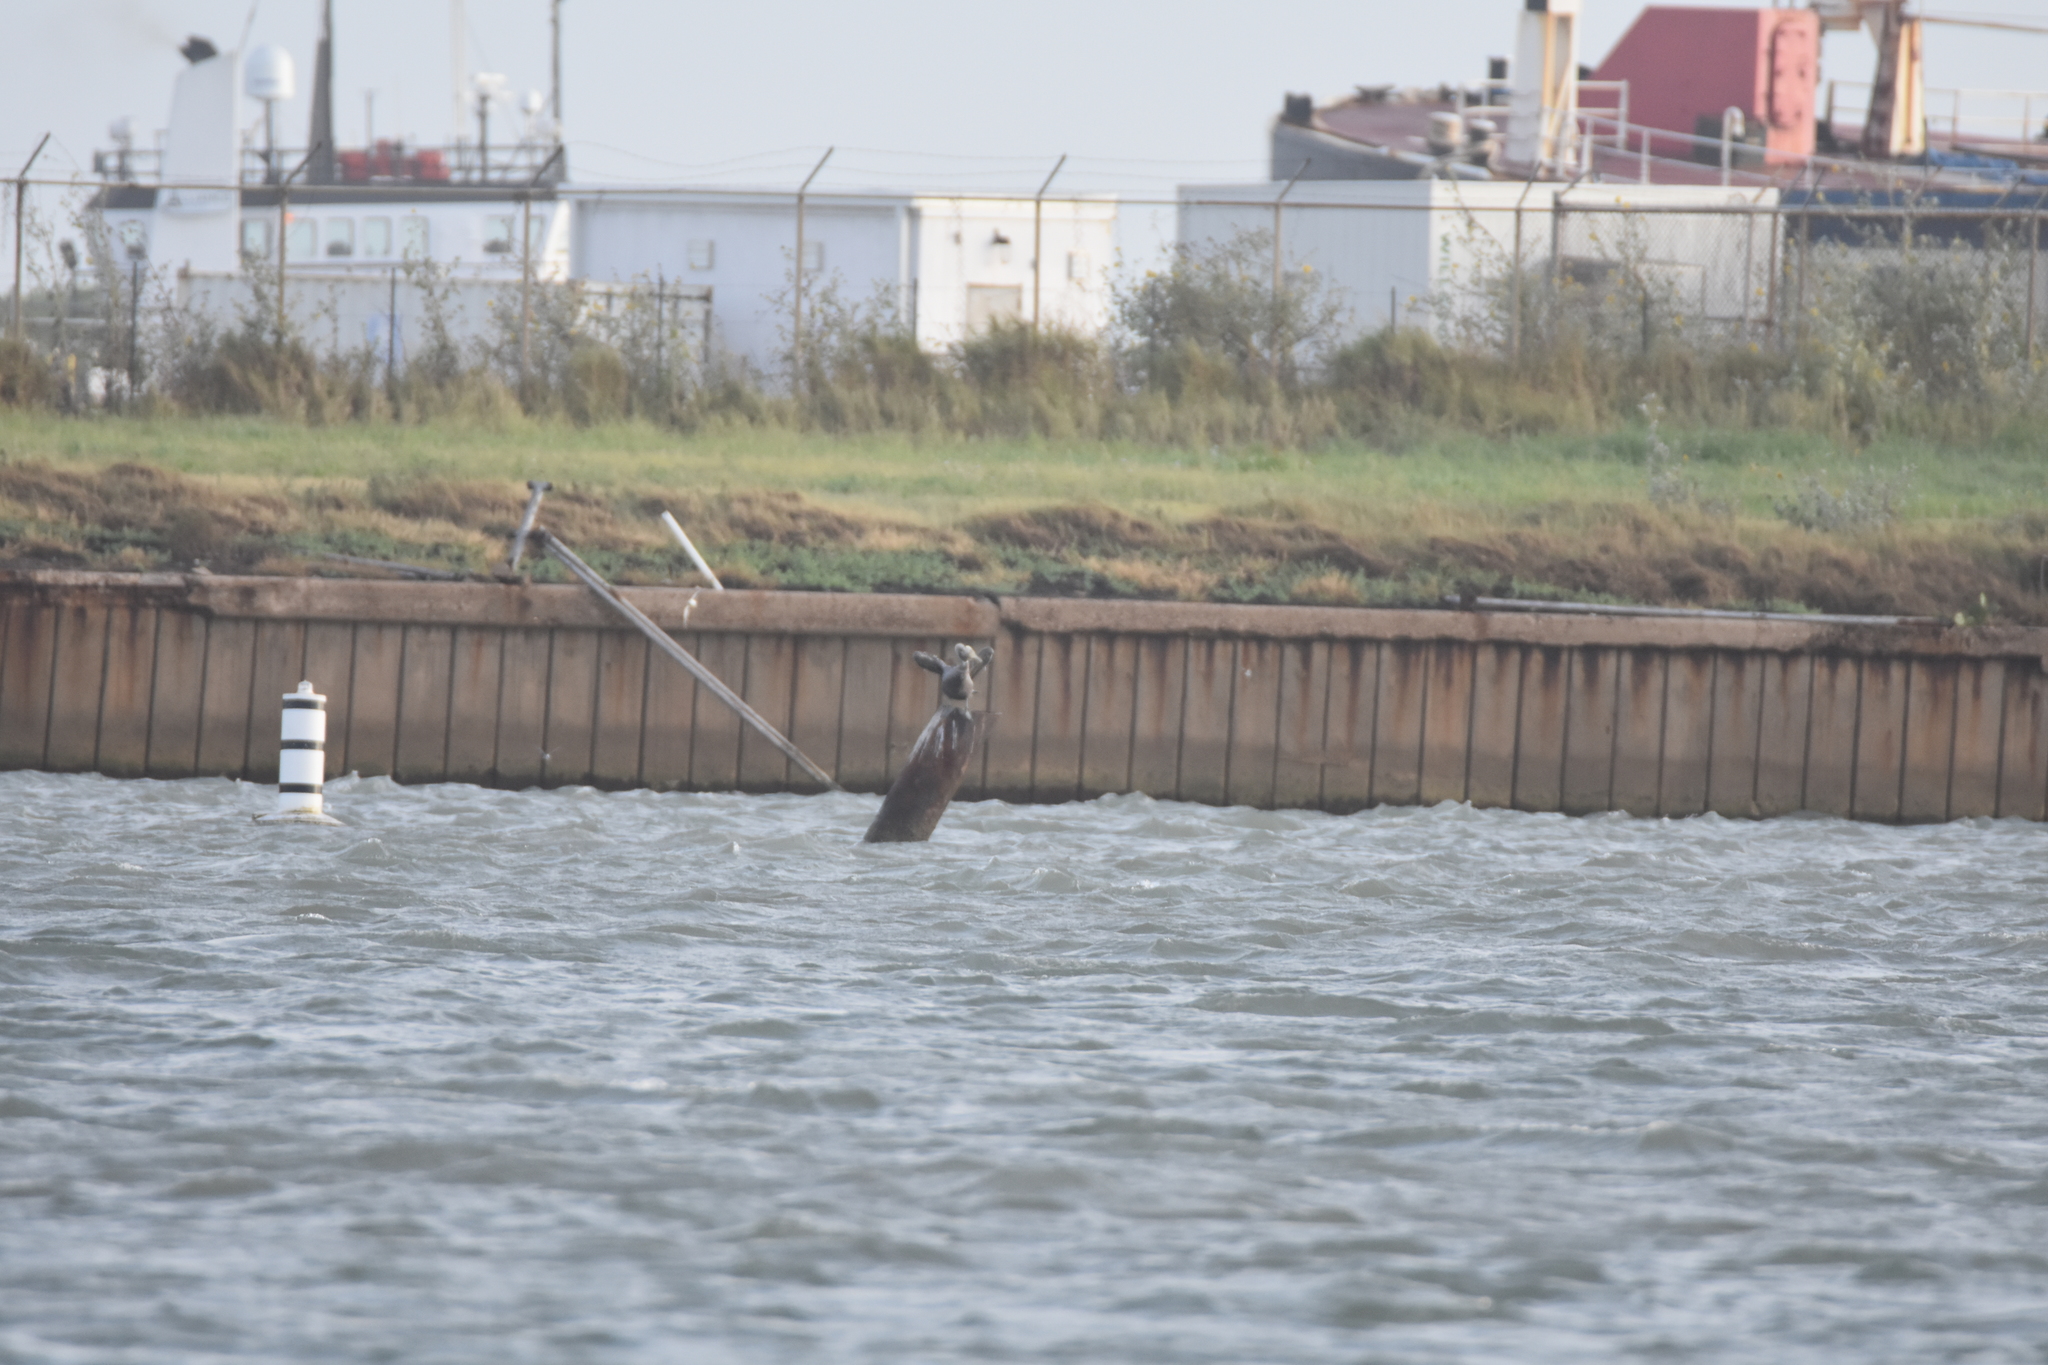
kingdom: Animalia
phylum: Chordata
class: Aves
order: Pelecaniformes
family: Pelecanidae
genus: Pelecanus
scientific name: Pelecanus occidentalis
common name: Brown pelican
